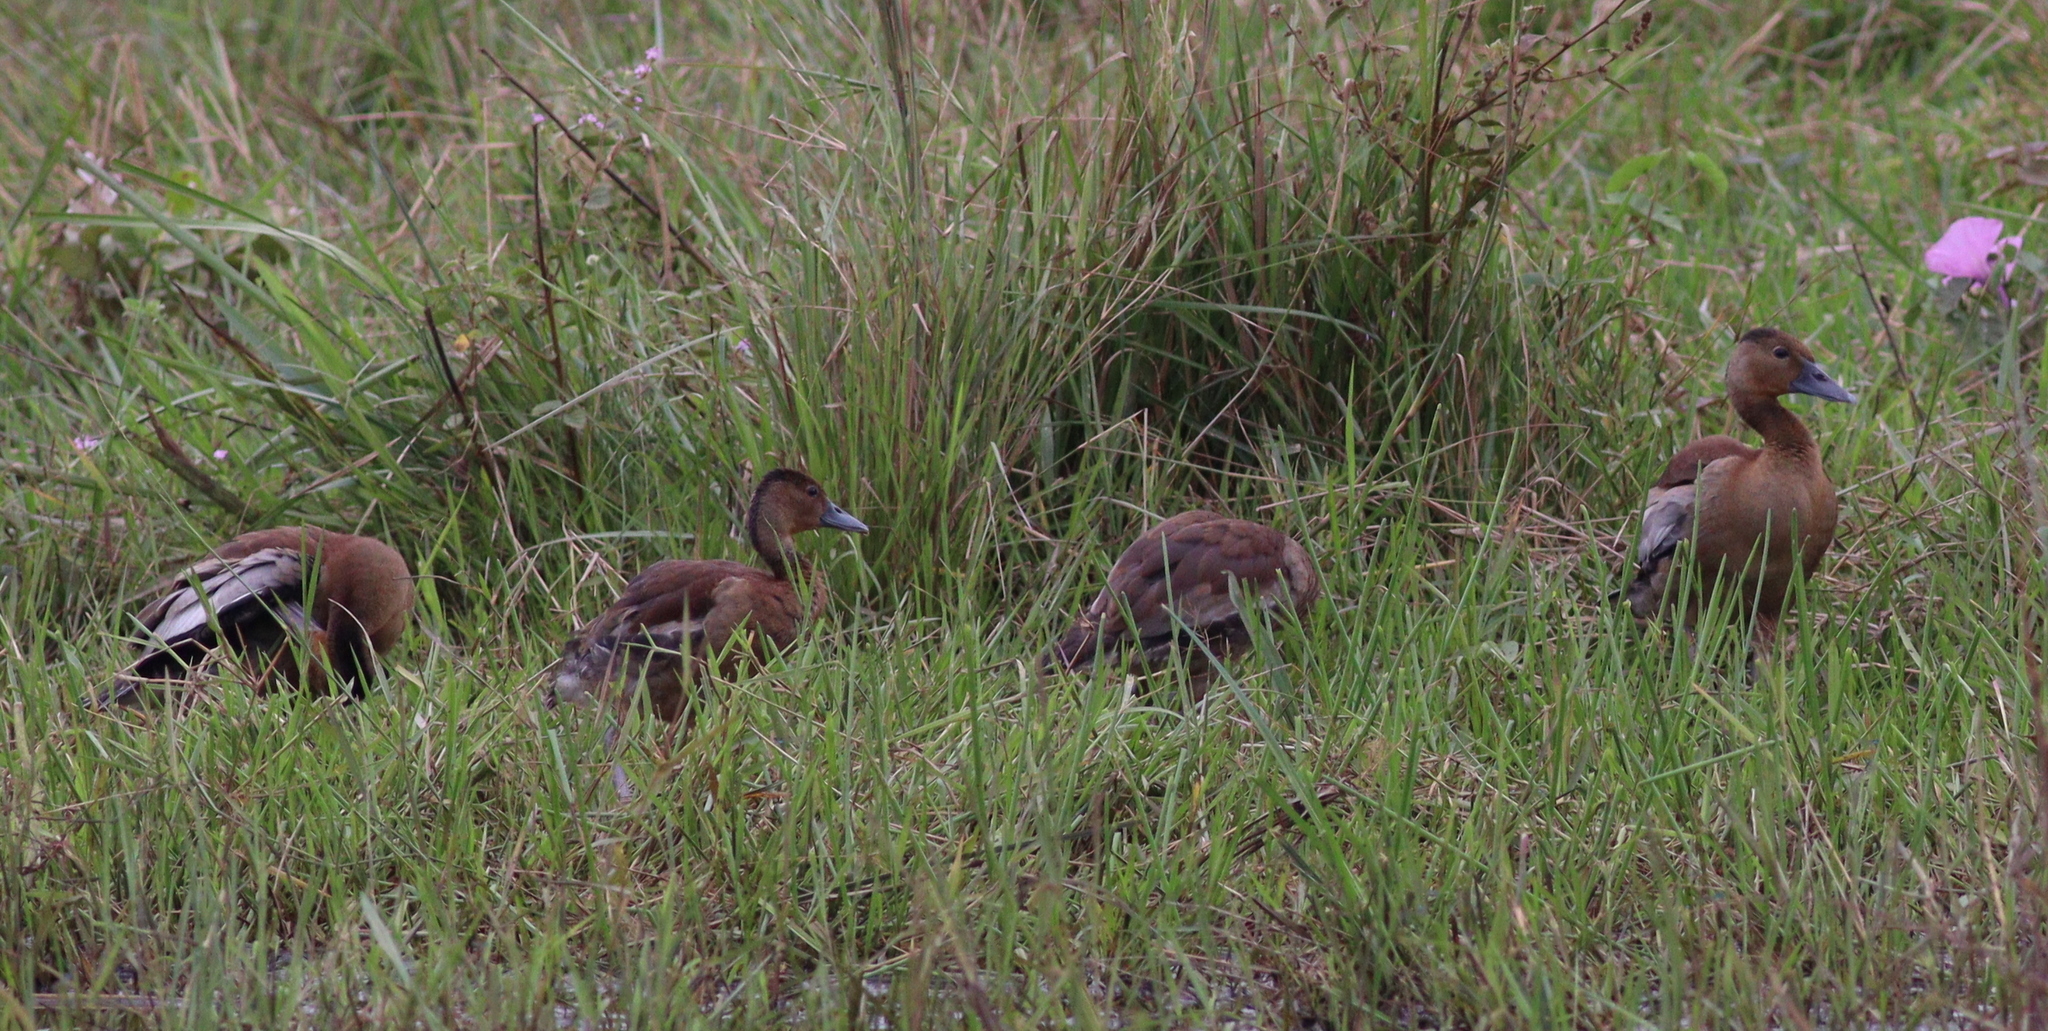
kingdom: Animalia
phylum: Chordata
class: Aves
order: Anseriformes
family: Anatidae
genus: Dendrocygna
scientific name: Dendrocygna autumnalis
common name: Black-bellied whistling duck
